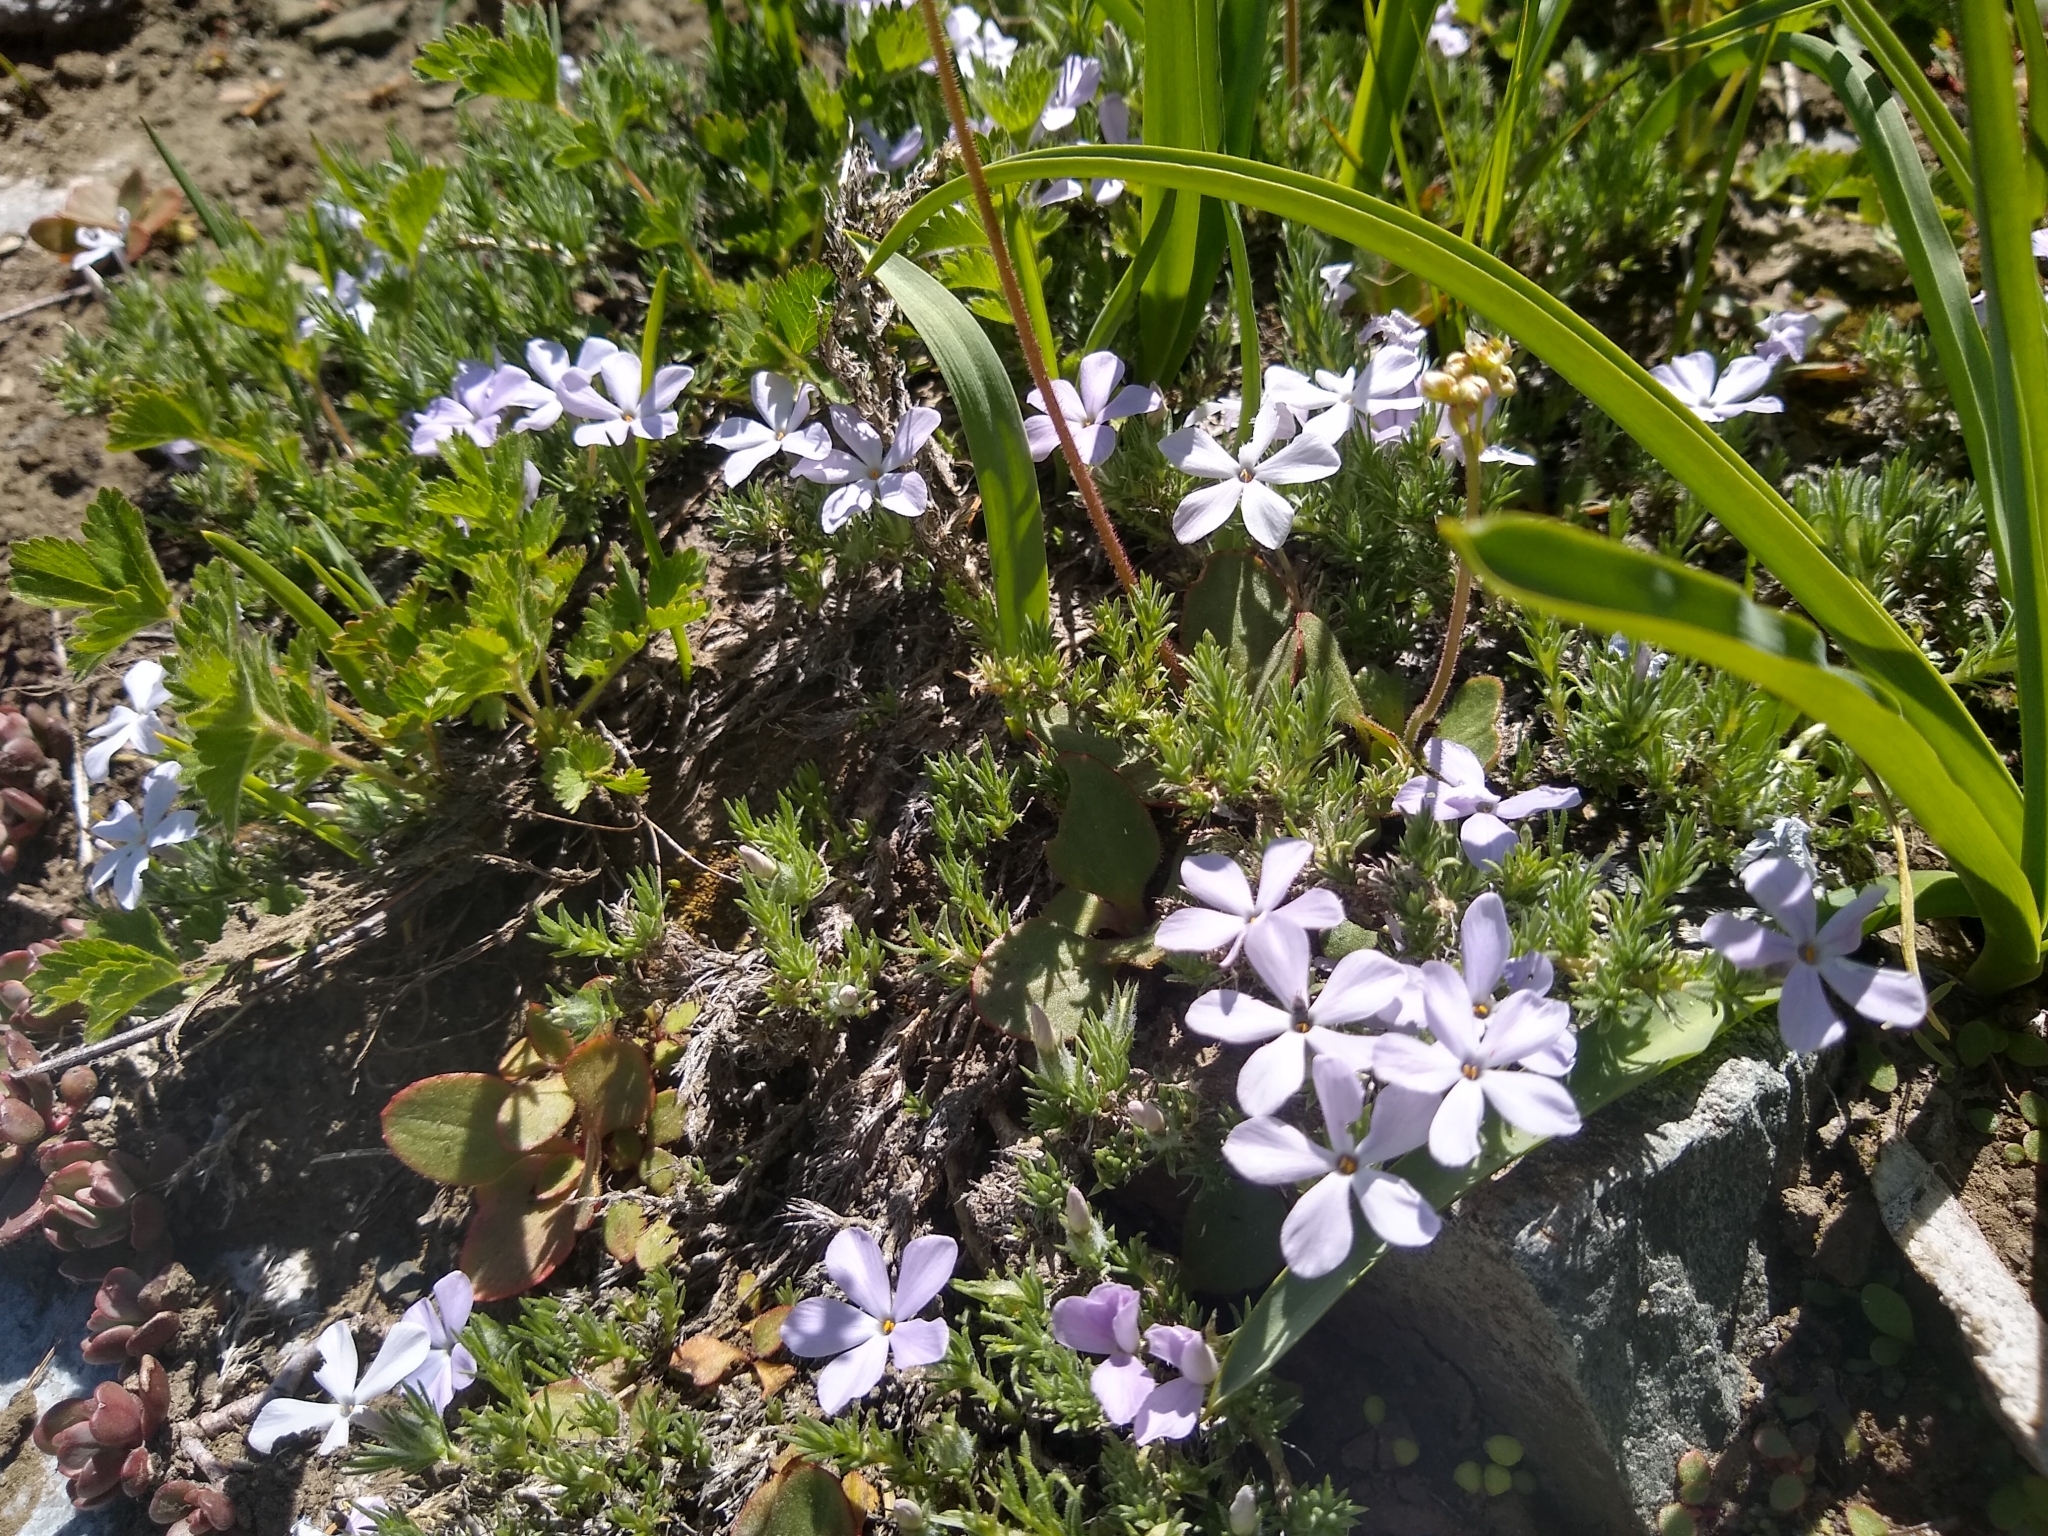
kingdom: Plantae
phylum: Tracheophyta
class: Magnoliopsida
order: Ericales
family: Polemoniaceae
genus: Phlox
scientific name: Phlox diffusa
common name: Mat phlox
